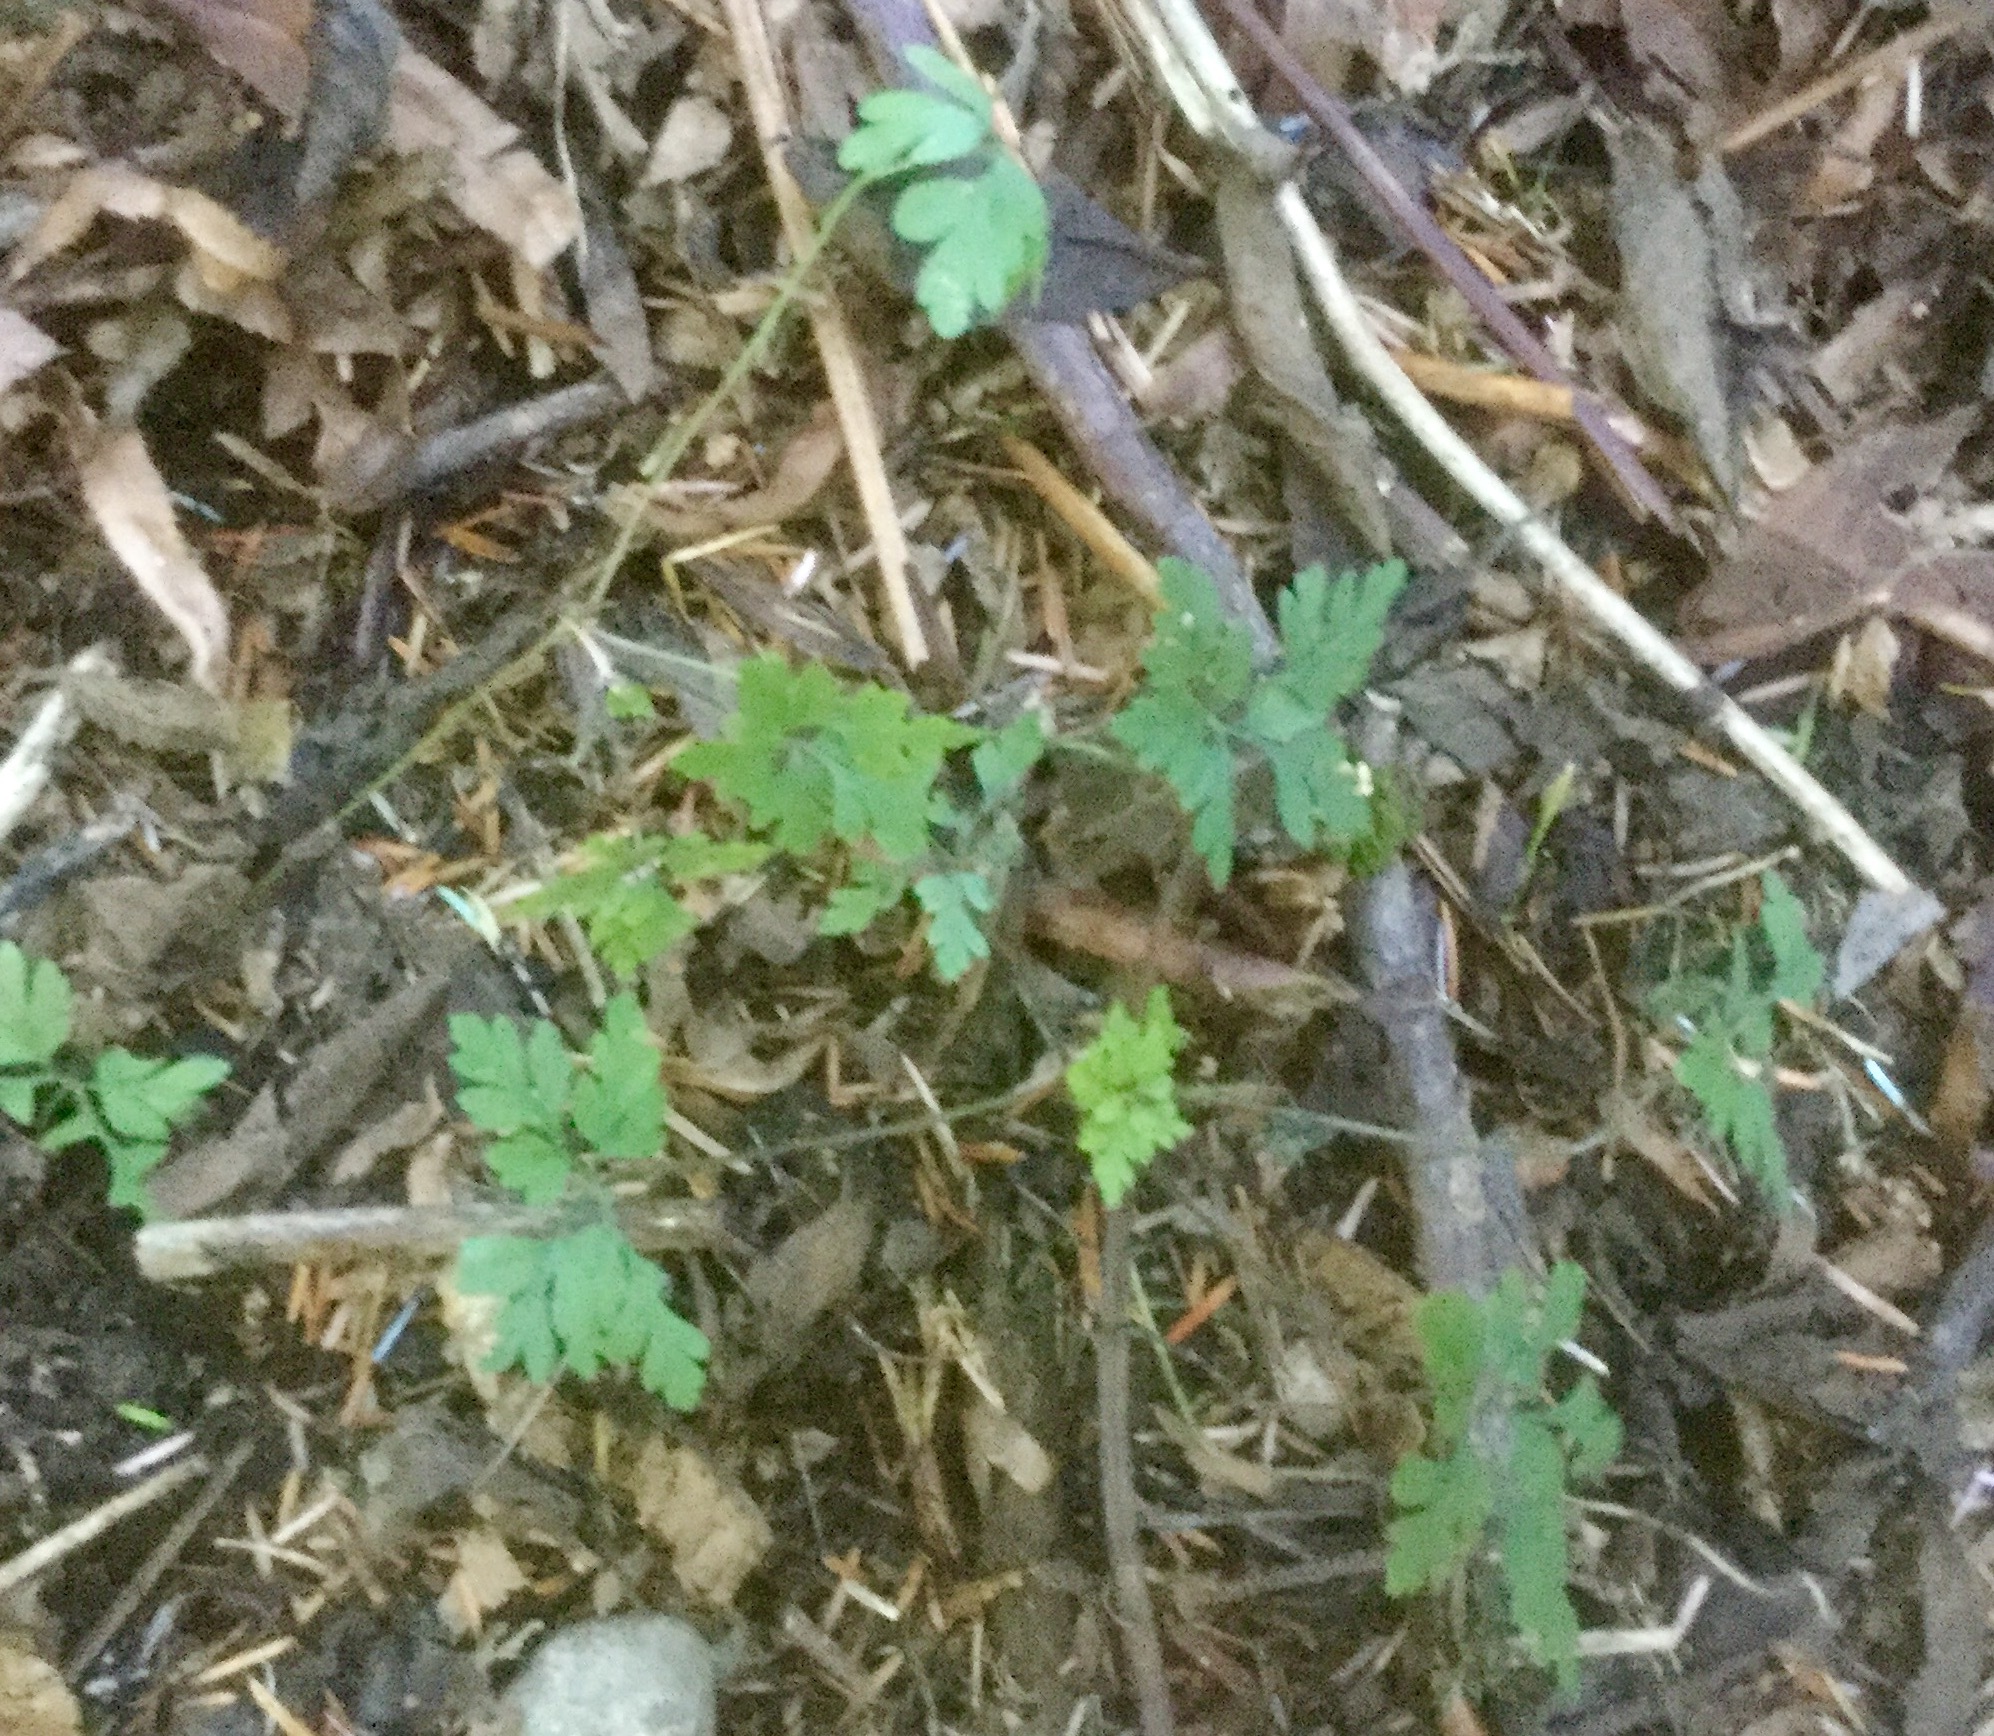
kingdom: Plantae
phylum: Tracheophyta
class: Magnoliopsida
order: Geraniales
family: Geraniaceae
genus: Geranium
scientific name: Geranium robertianum
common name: Herb-robert
